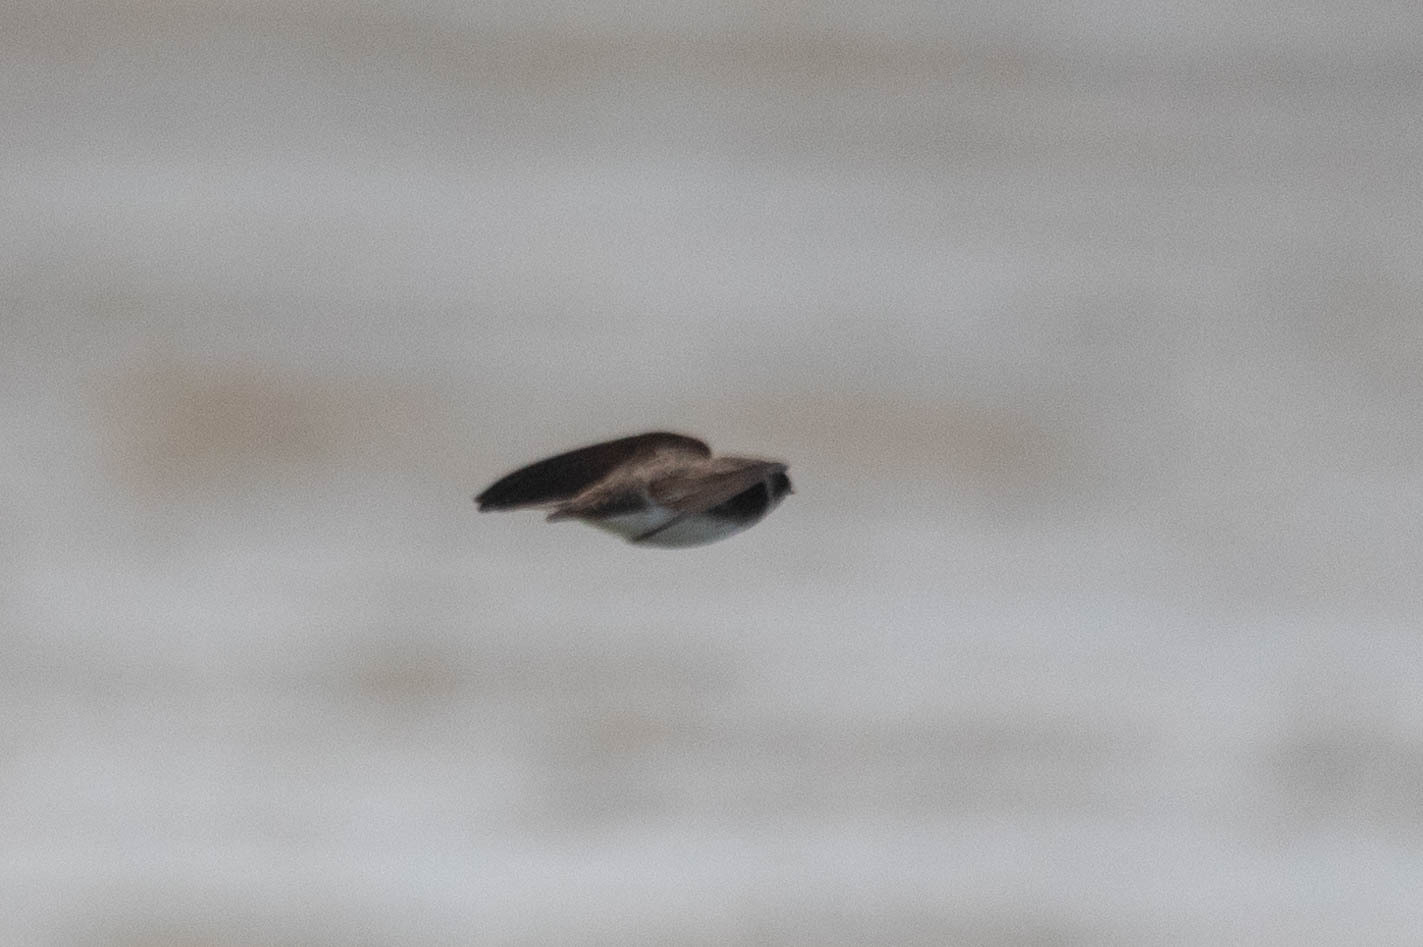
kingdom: Animalia
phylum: Chordata
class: Aves
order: Passeriformes
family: Hirundinidae
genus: Riparia
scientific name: Riparia riparia
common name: Sand martin
